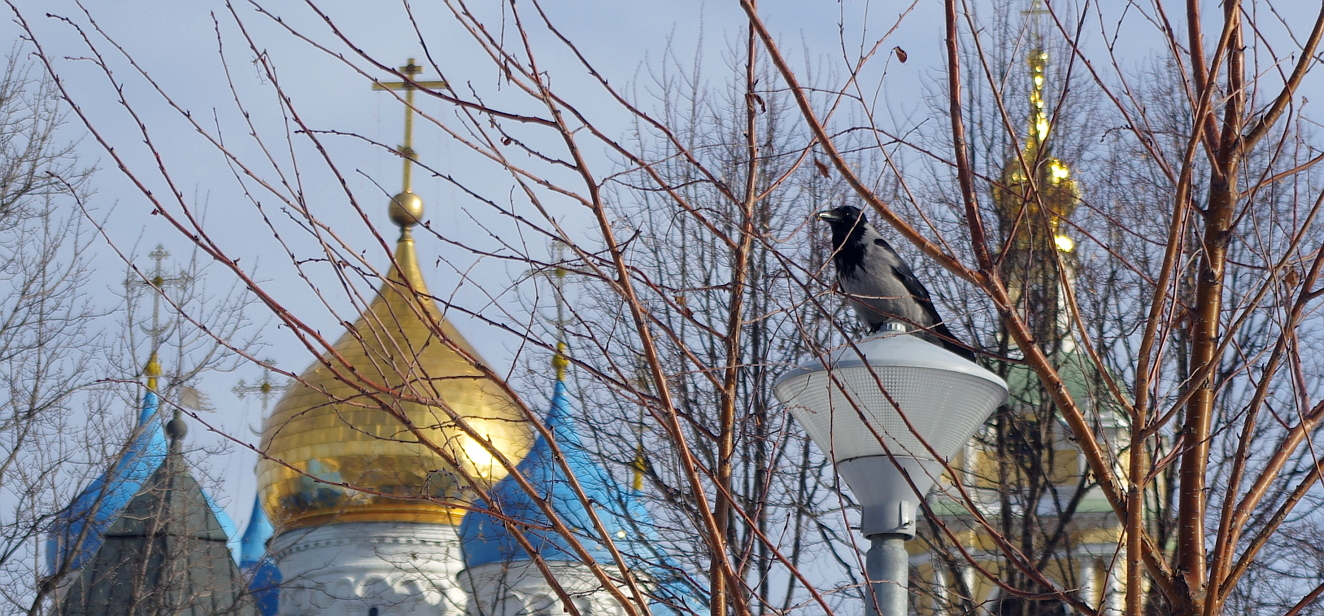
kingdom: Animalia
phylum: Chordata
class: Aves
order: Passeriformes
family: Corvidae
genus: Corvus
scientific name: Corvus cornix
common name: Hooded crow
